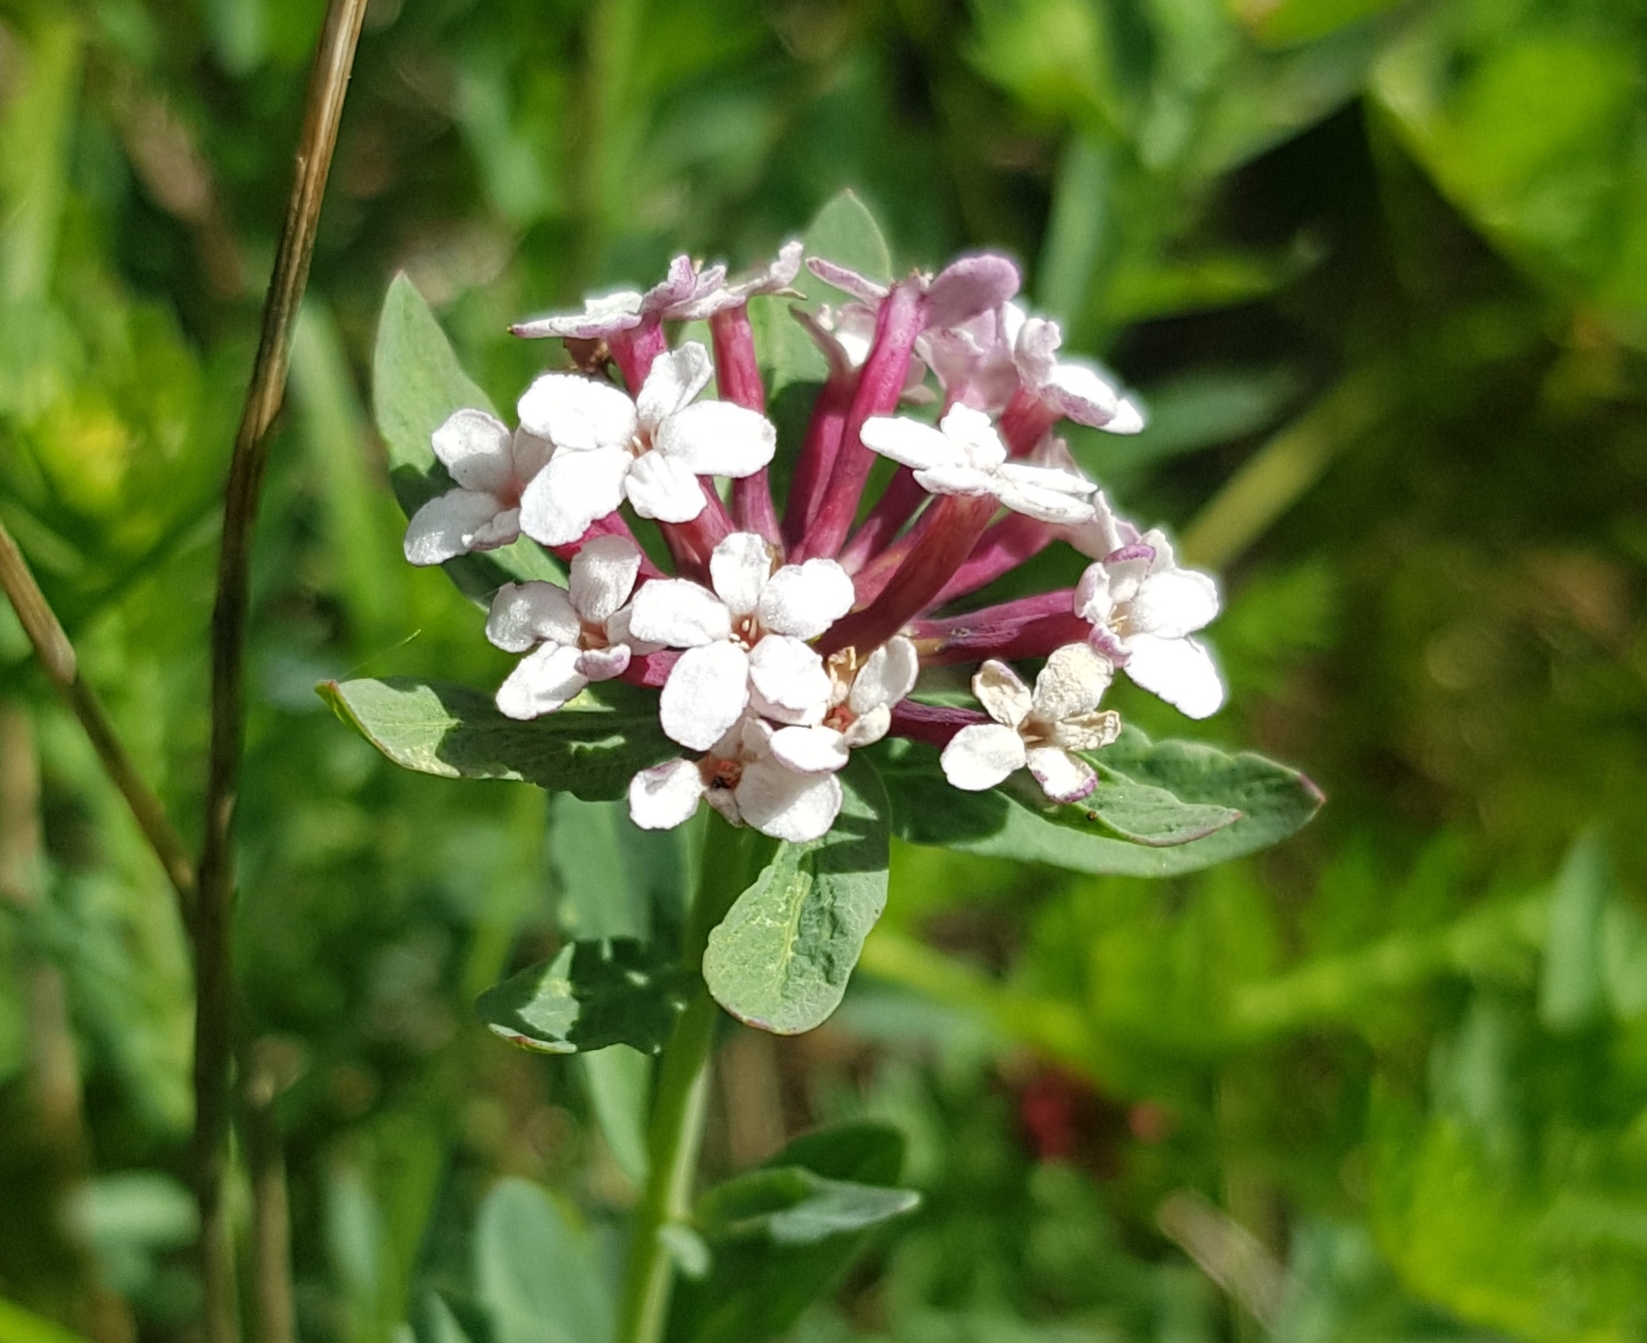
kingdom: Plantae
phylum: Tracheophyta
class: Magnoliopsida
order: Malvales
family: Thymelaeaceae
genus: Stellera
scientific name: Stellera chamaejasme
